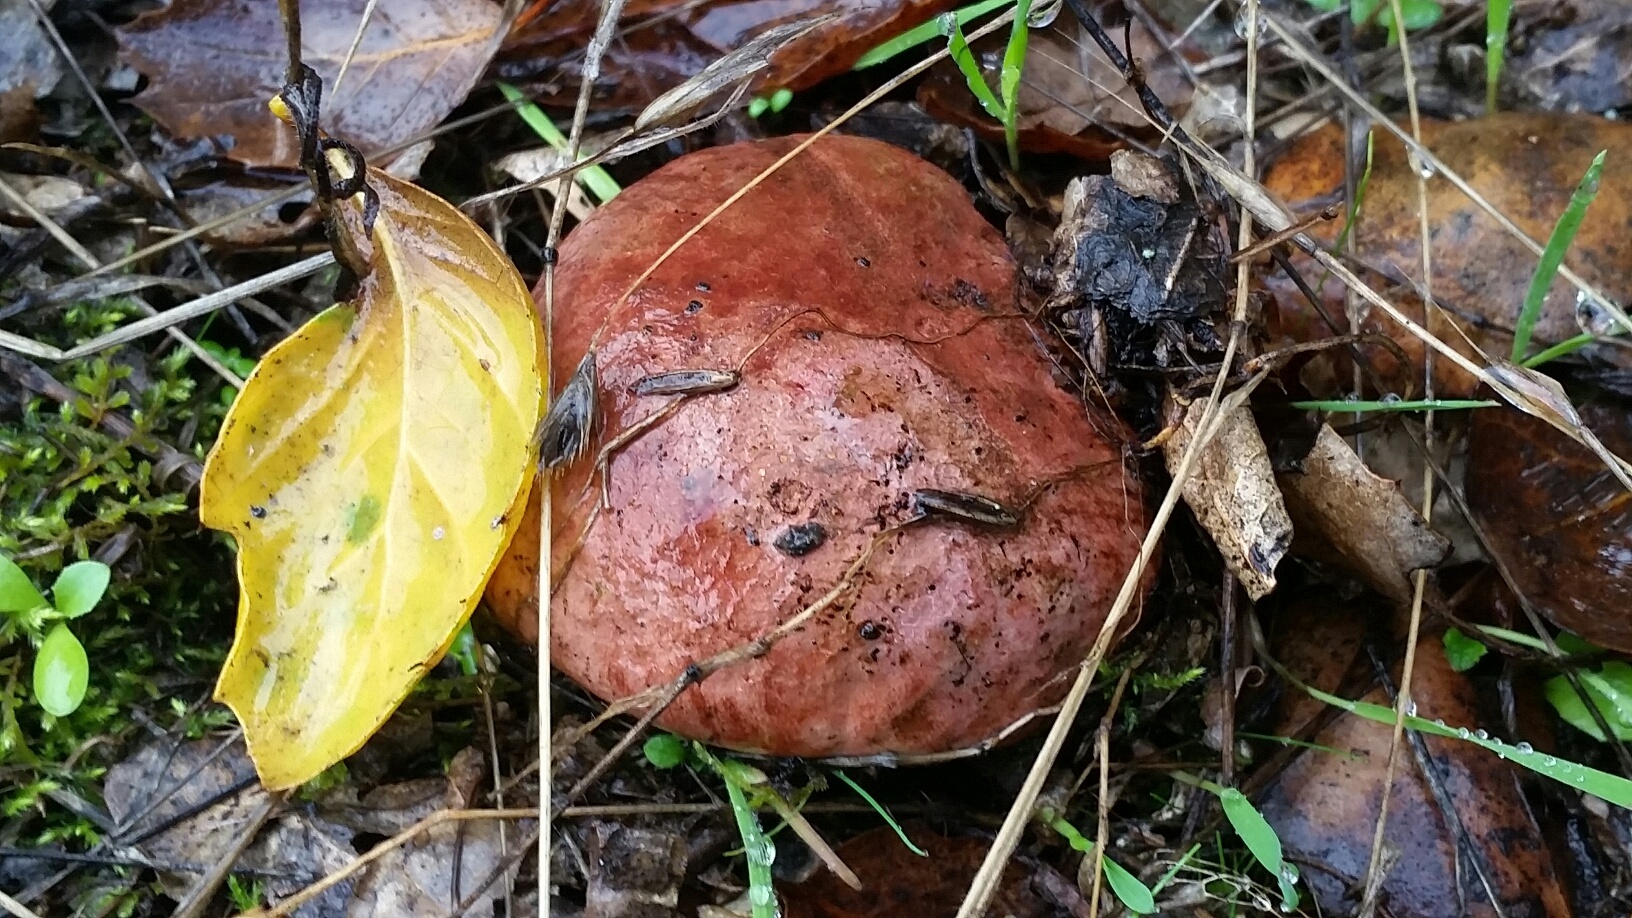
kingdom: Fungi
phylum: Basidiomycota
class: Agaricomycetes
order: Boletales
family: Boletaceae
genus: Suillellus
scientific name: Suillellus amygdalinus
